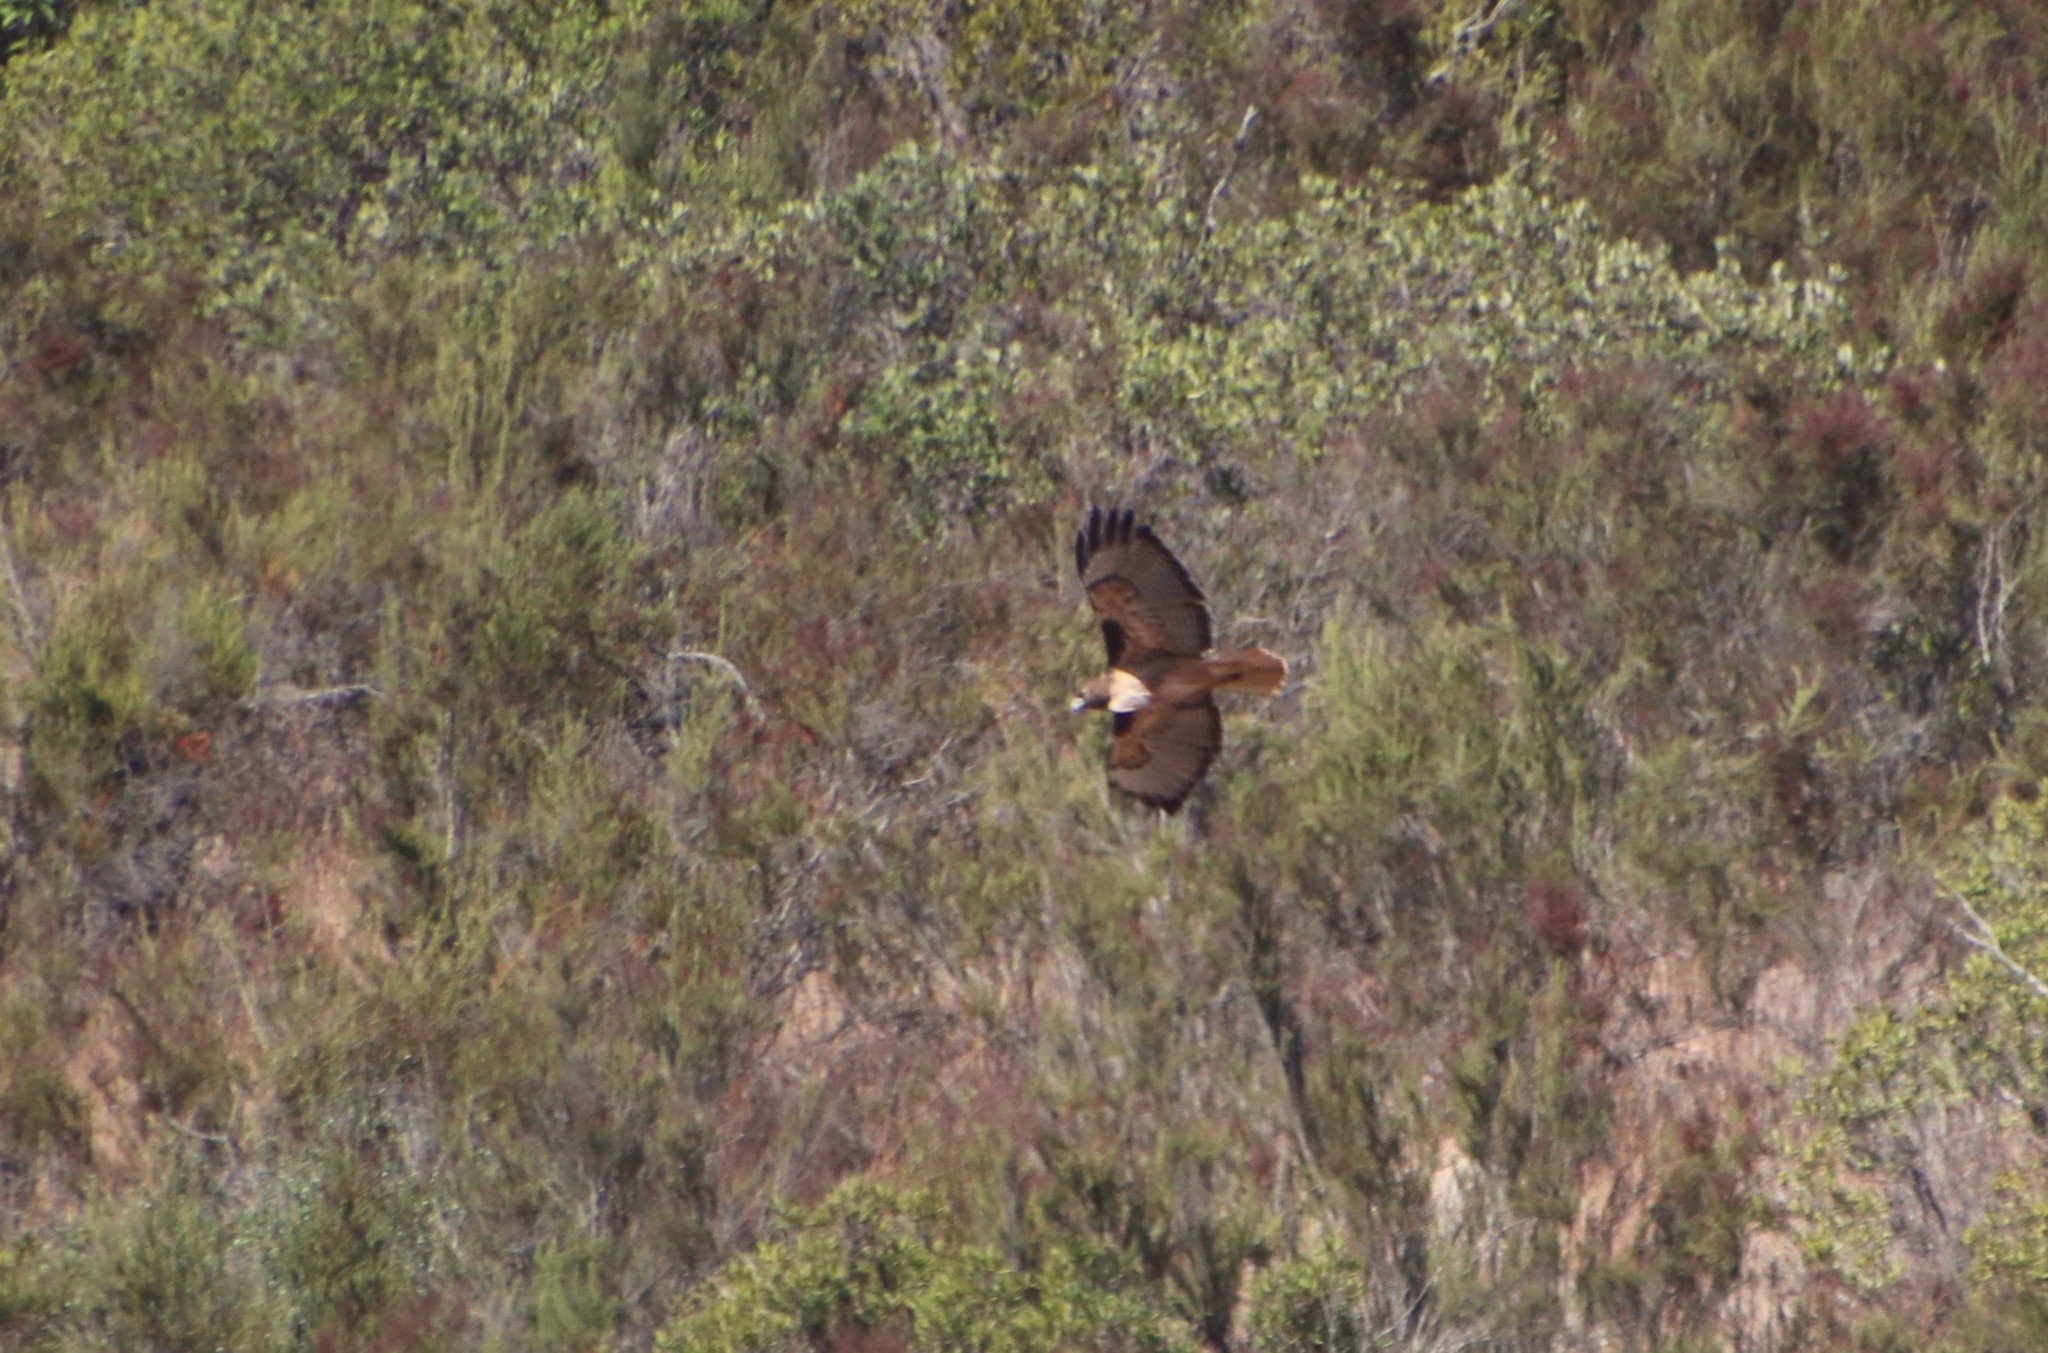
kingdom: Animalia
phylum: Chordata
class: Aves
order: Accipitriformes
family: Accipitridae
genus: Buteo
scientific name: Buteo jamaicensis
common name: Red-tailed hawk
